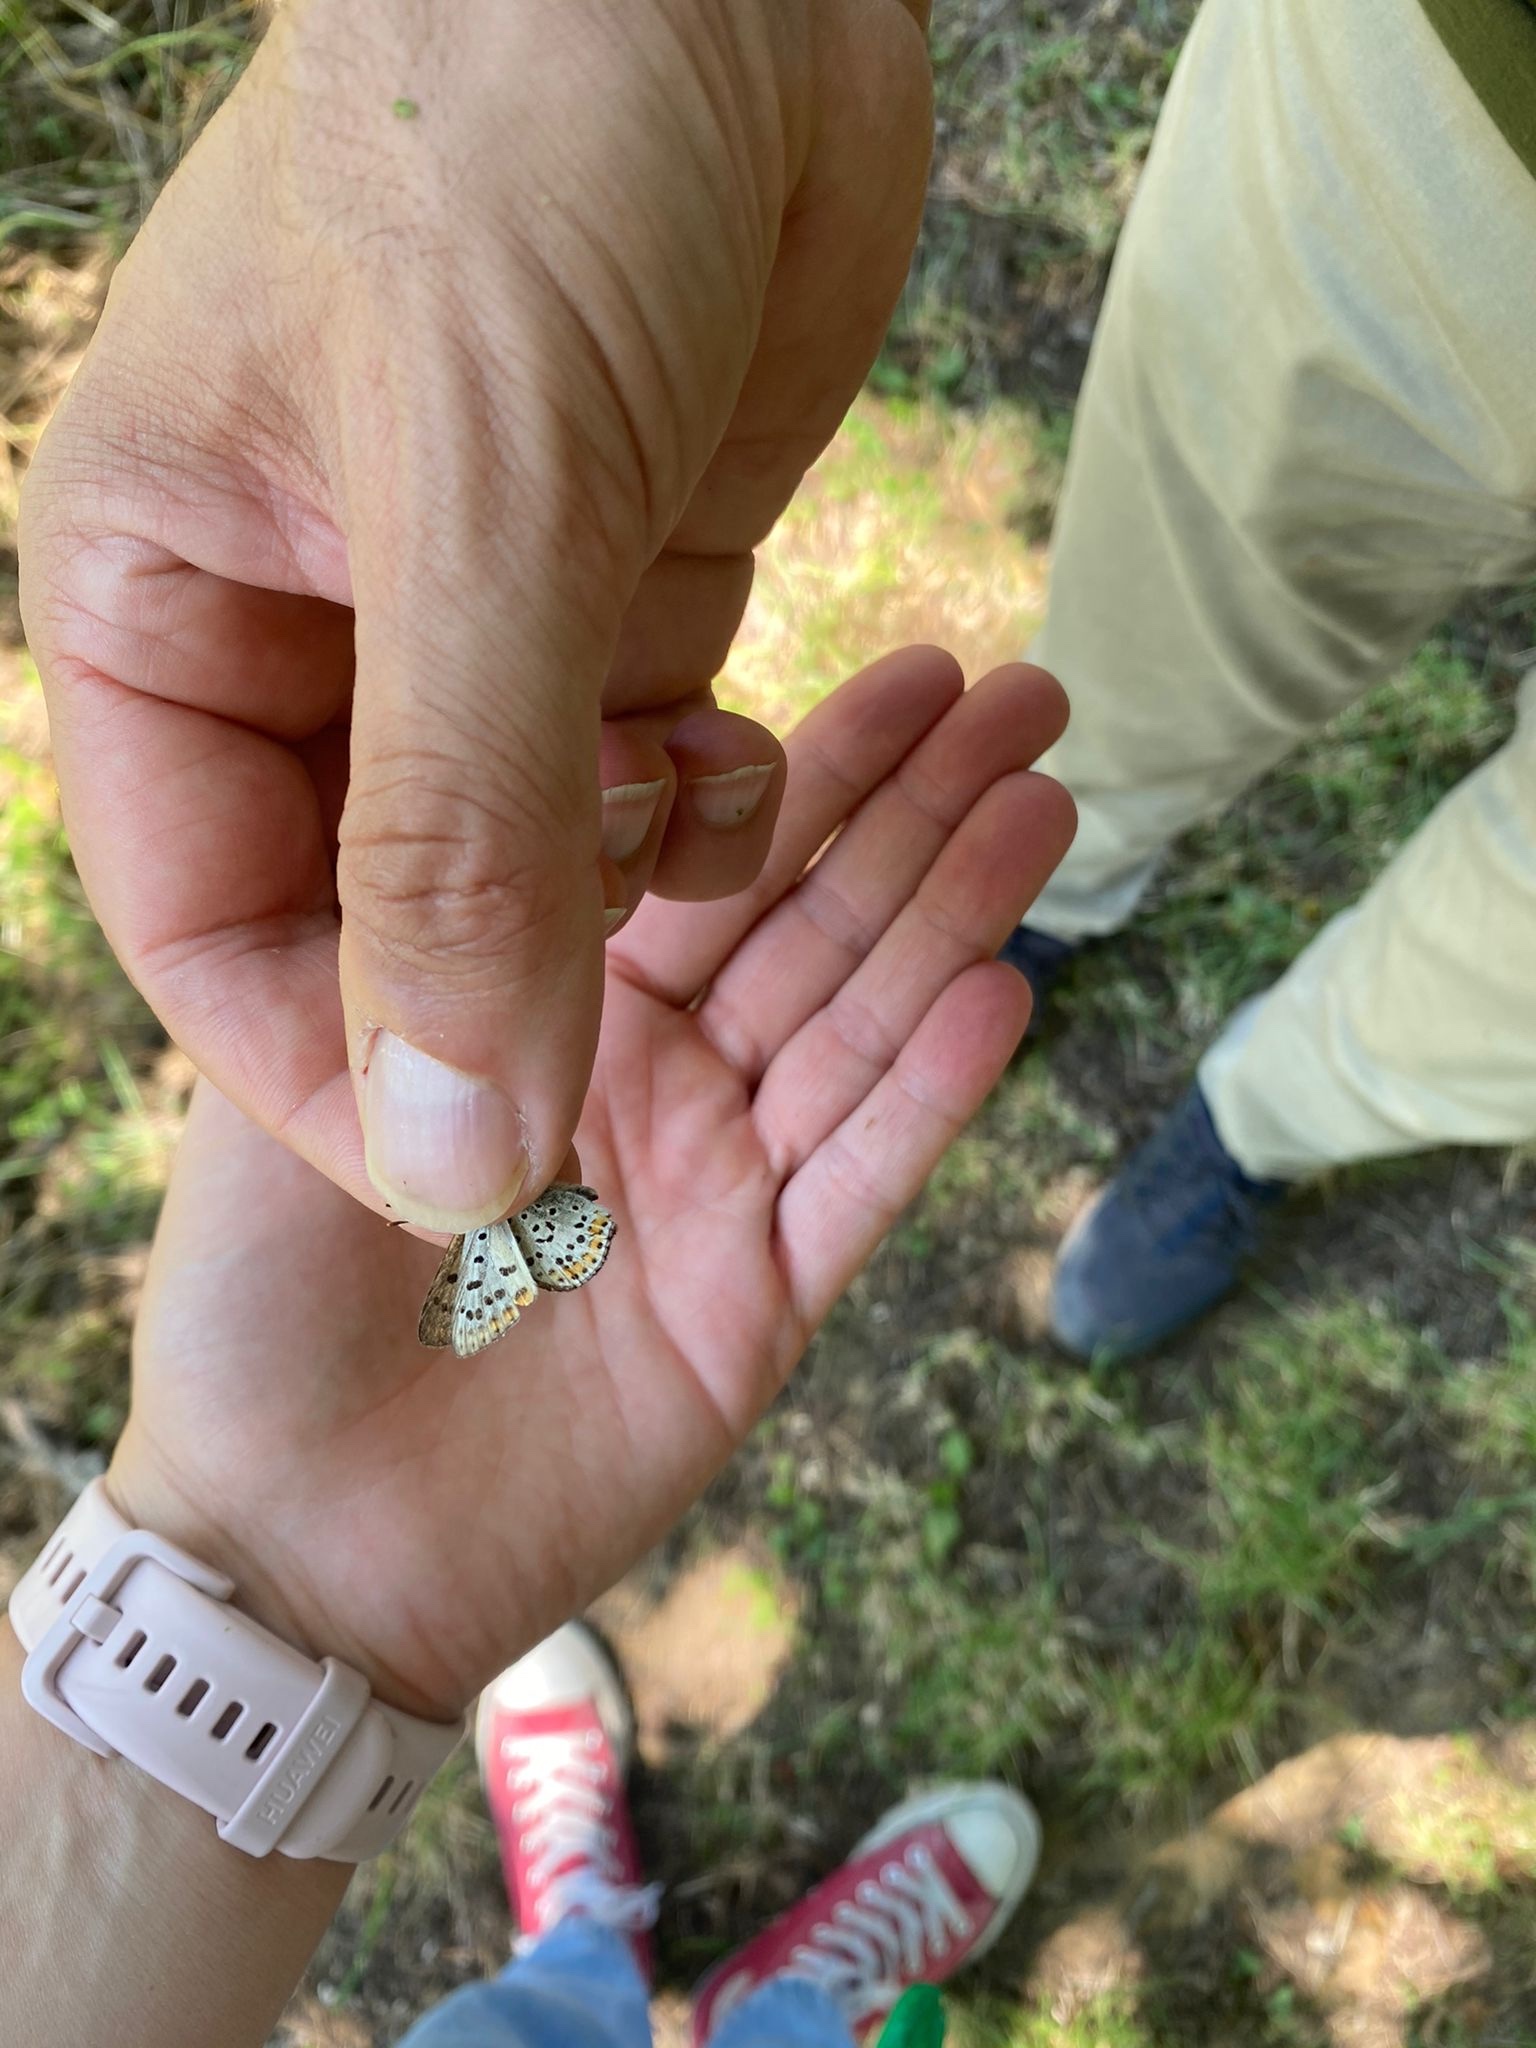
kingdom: Animalia
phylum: Arthropoda
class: Insecta
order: Lepidoptera
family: Lycaenidae
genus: Loweia
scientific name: Loweia tityrus
